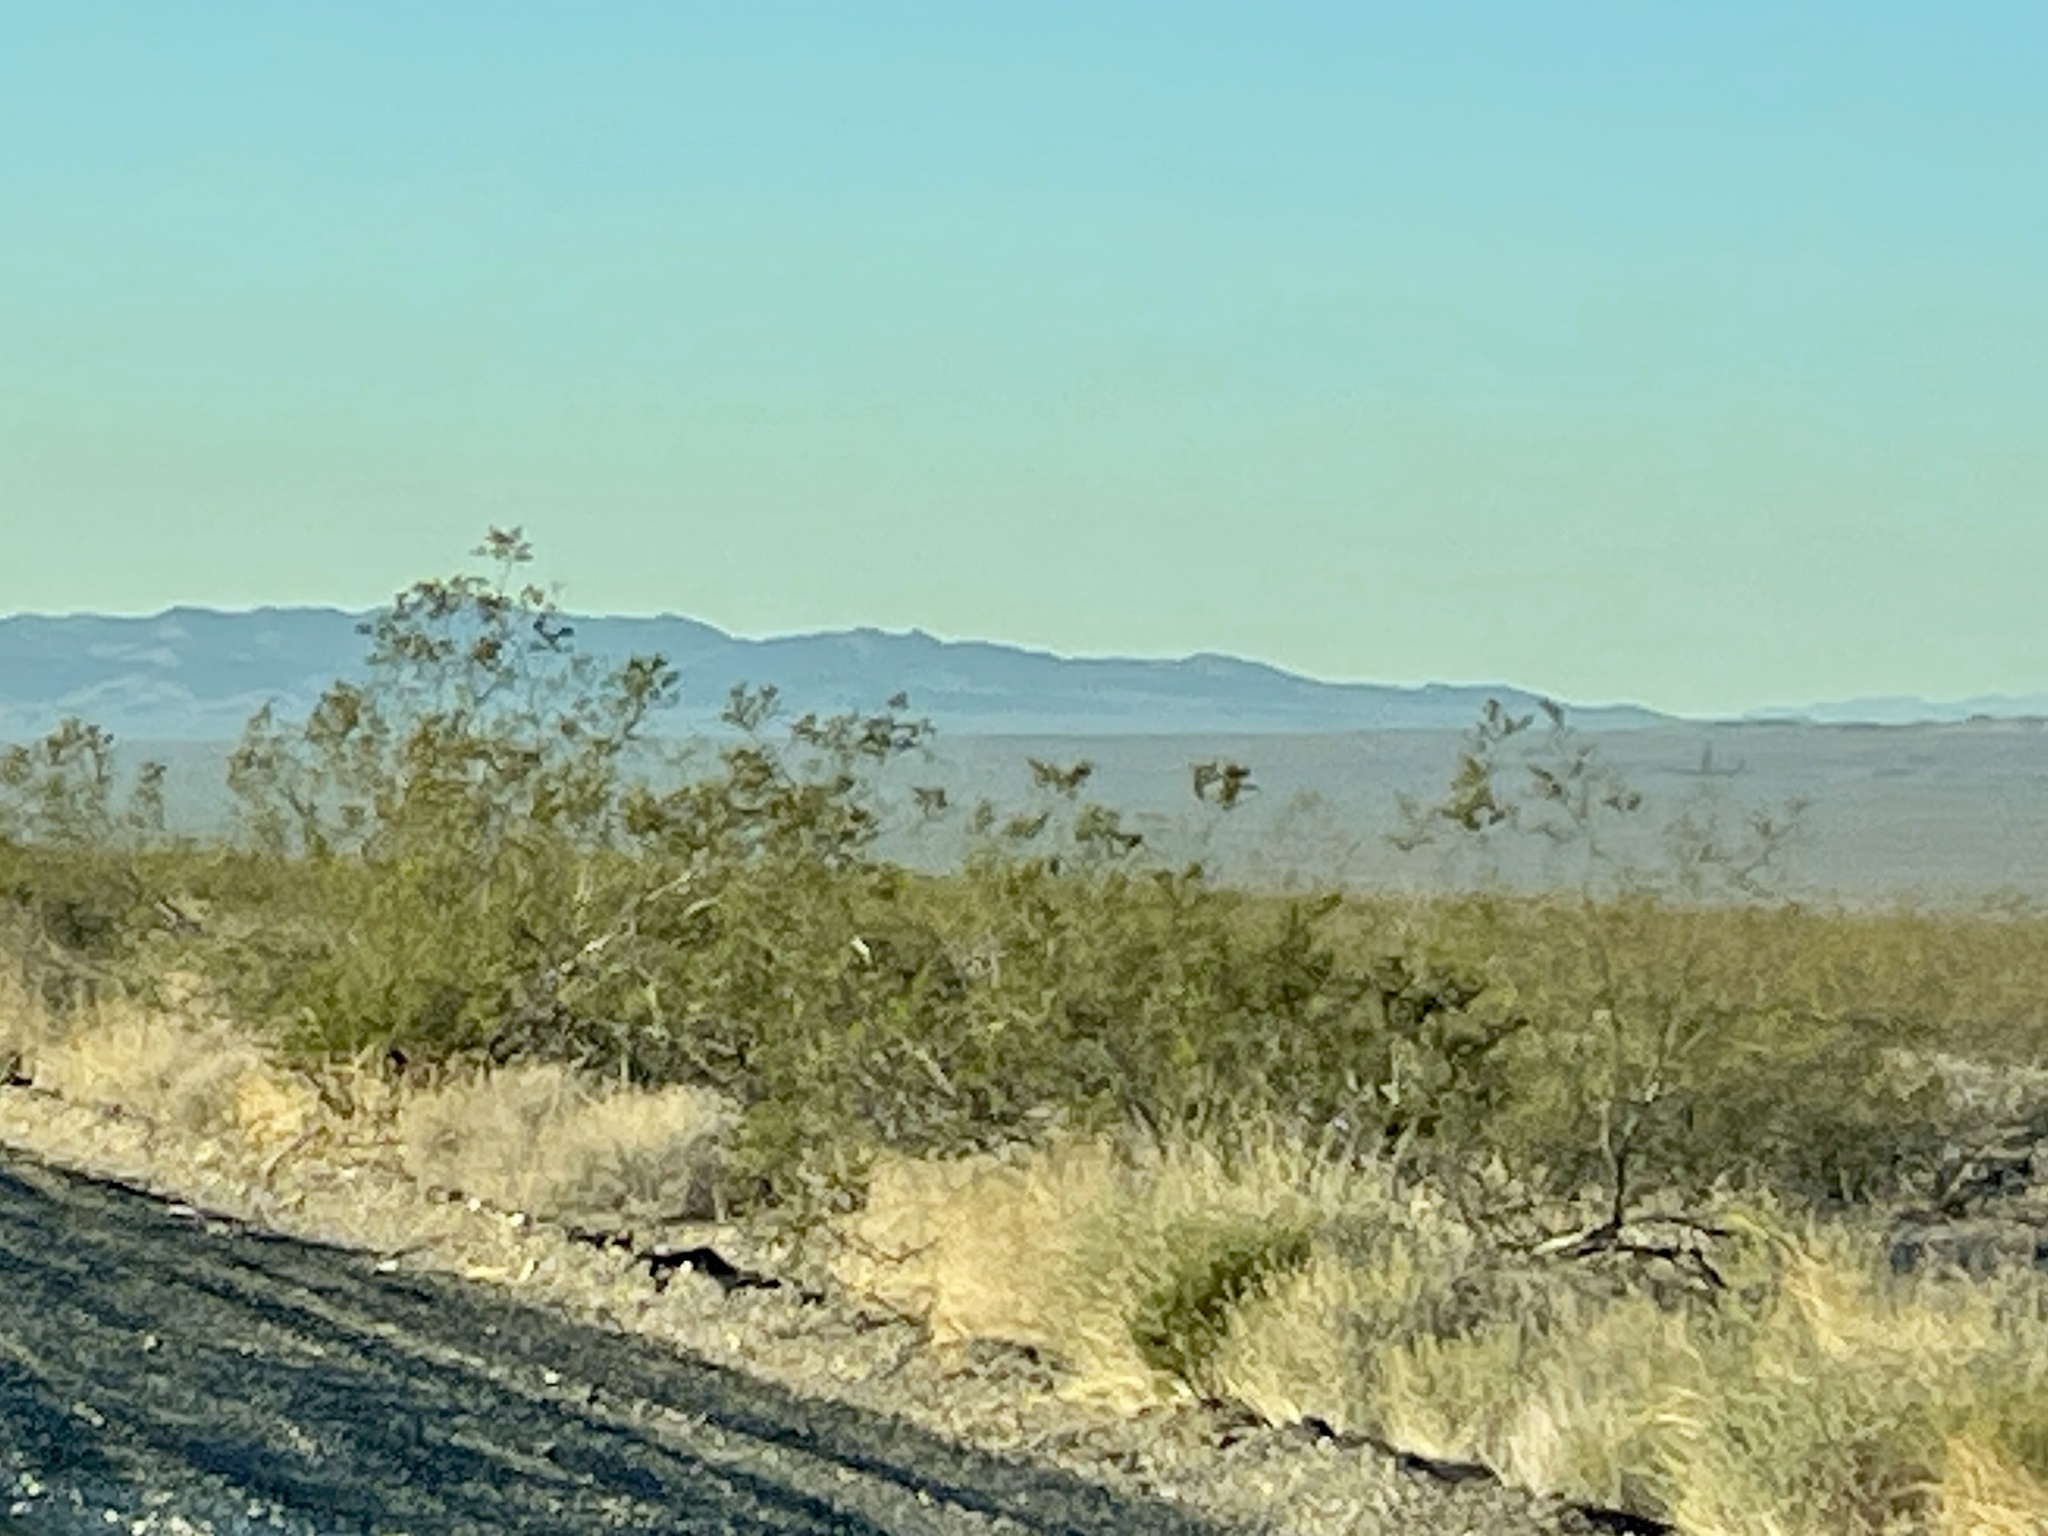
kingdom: Plantae
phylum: Tracheophyta
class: Magnoliopsida
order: Zygophyllales
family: Zygophyllaceae
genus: Larrea
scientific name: Larrea tridentata
